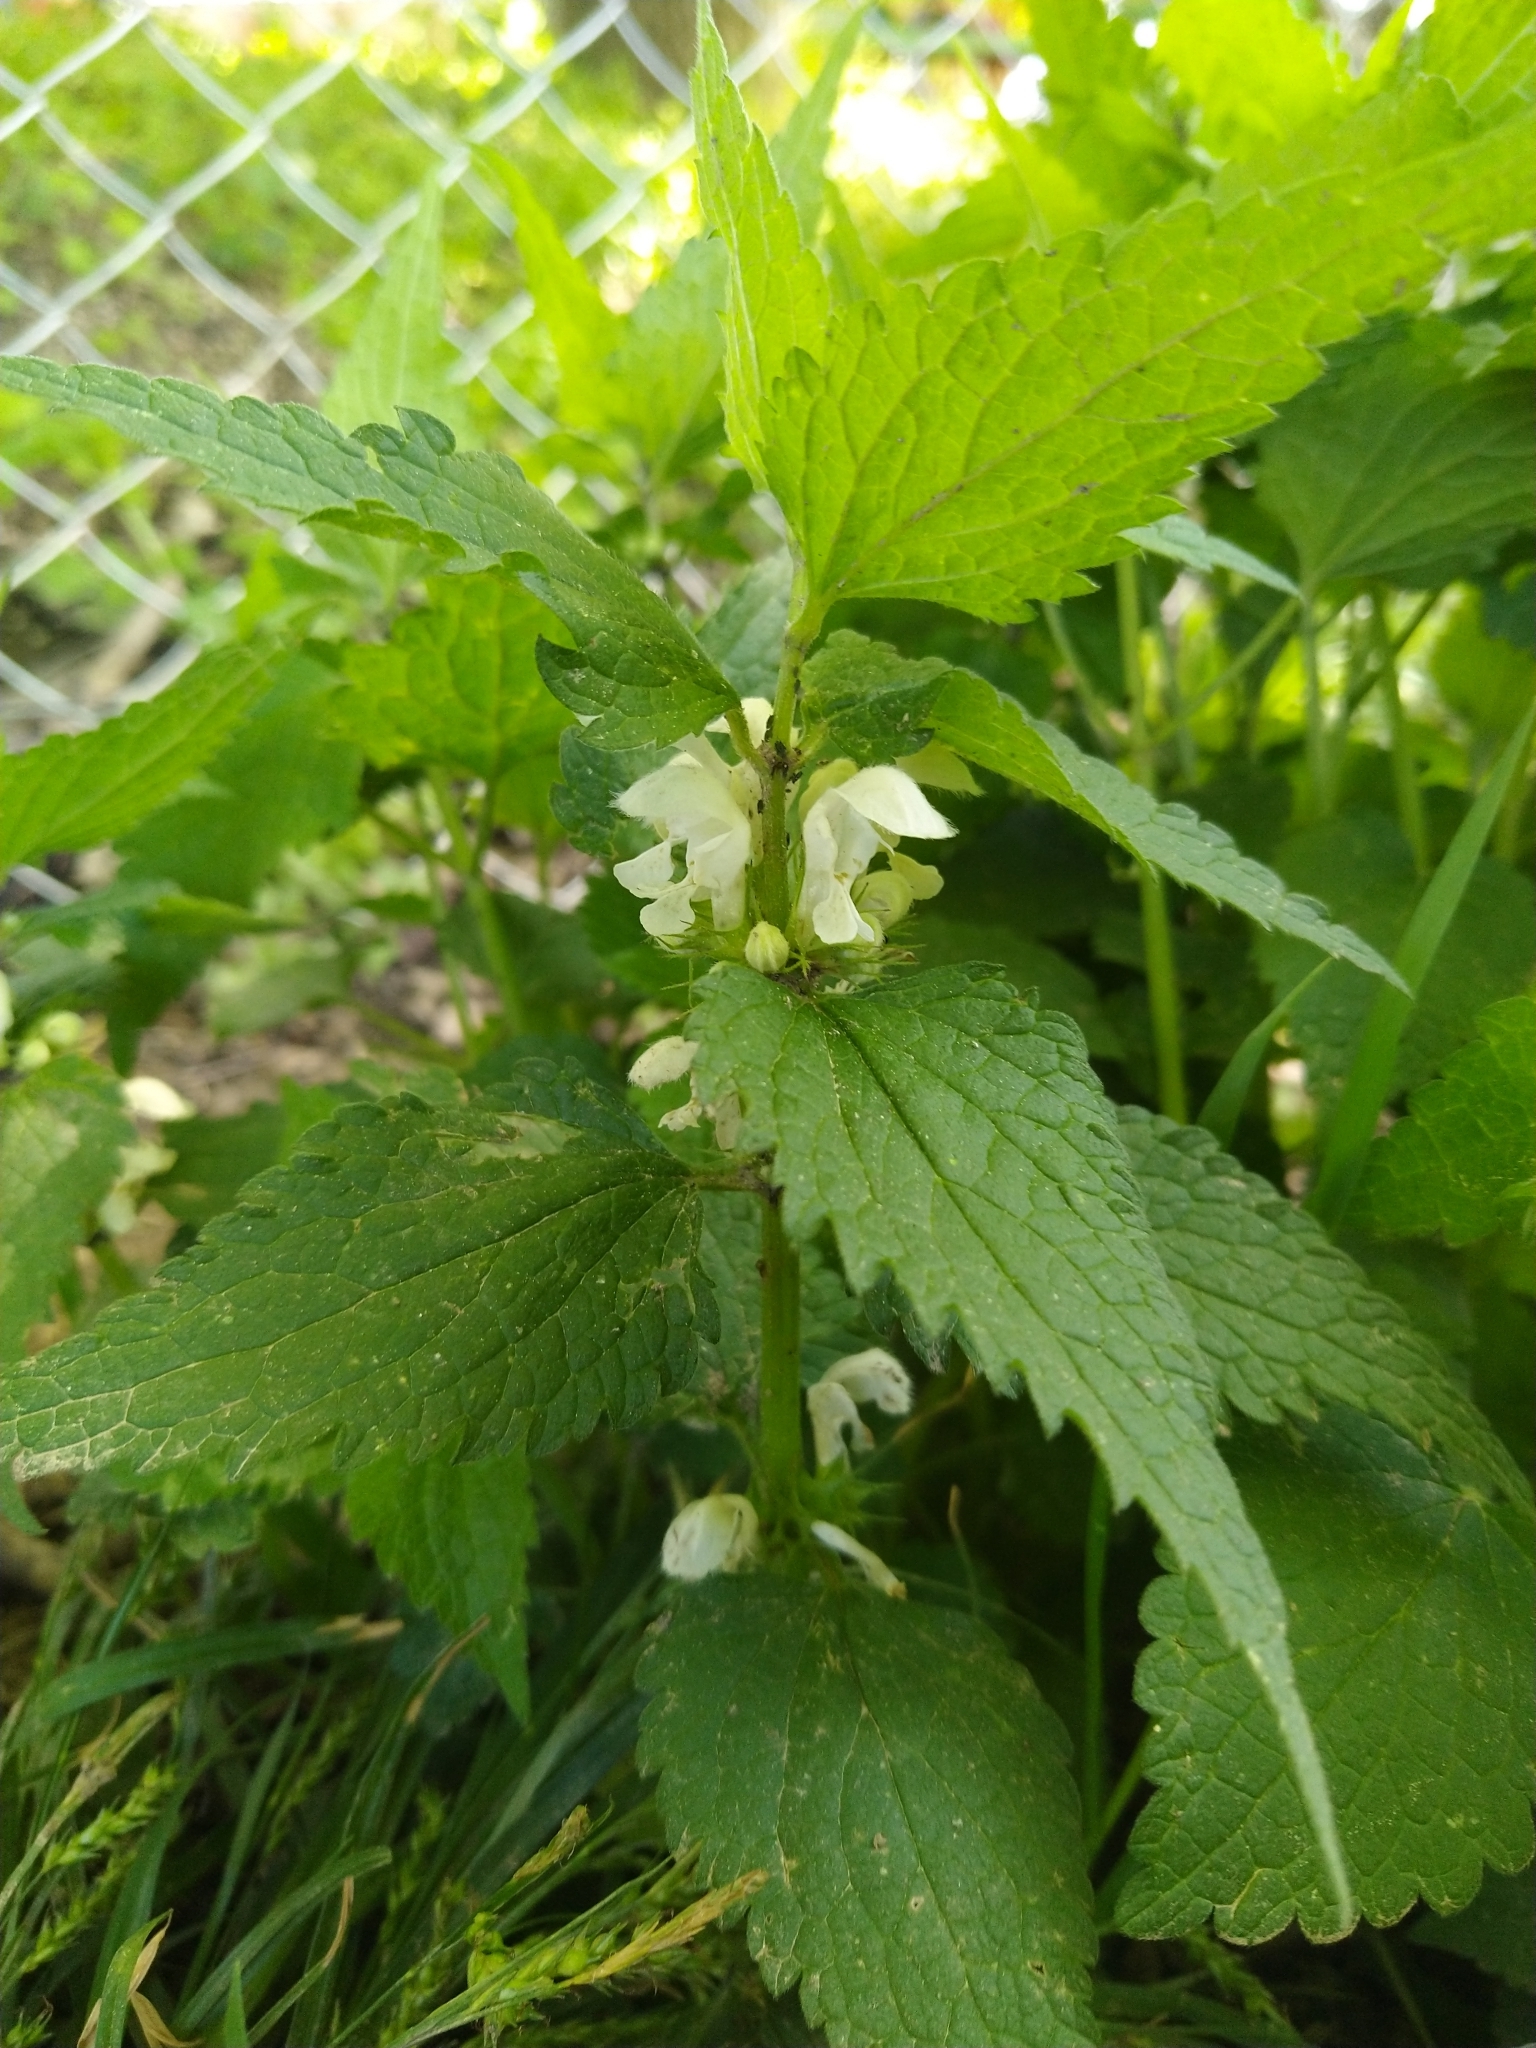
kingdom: Plantae
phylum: Tracheophyta
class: Magnoliopsida
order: Lamiales
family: Lamiaceae
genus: Lamium
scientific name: Lamium album
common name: White dead-nettle
